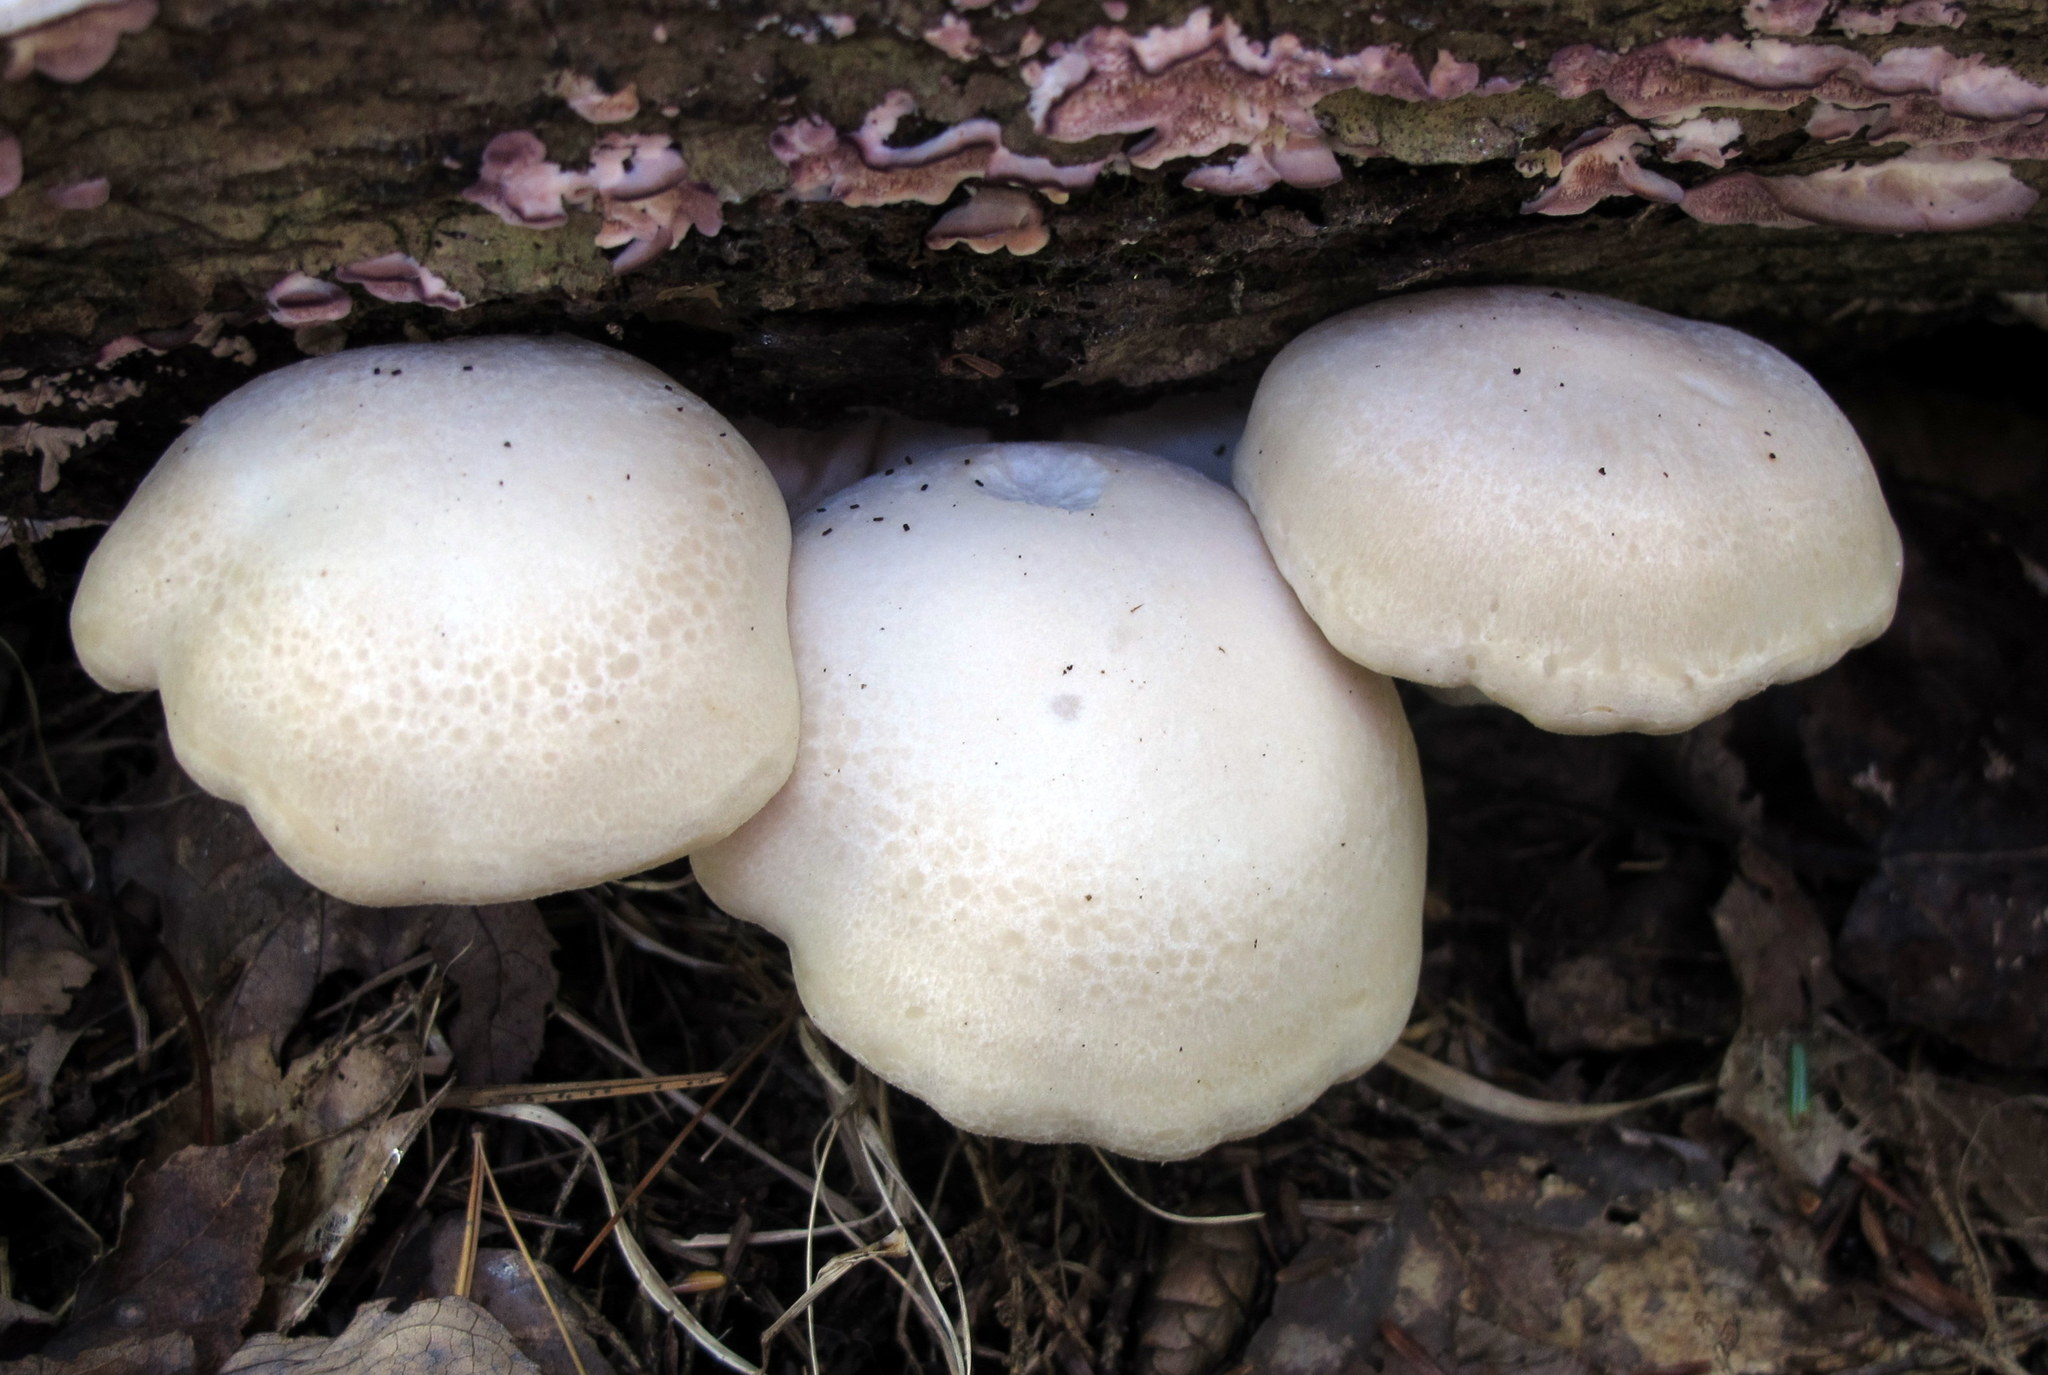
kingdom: Fungi
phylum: Basidiomycota
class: Agaricomycetes
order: Agaricales
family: Lyophyllaceae
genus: Hypsizygus
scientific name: Hypsizygus marmoreus
